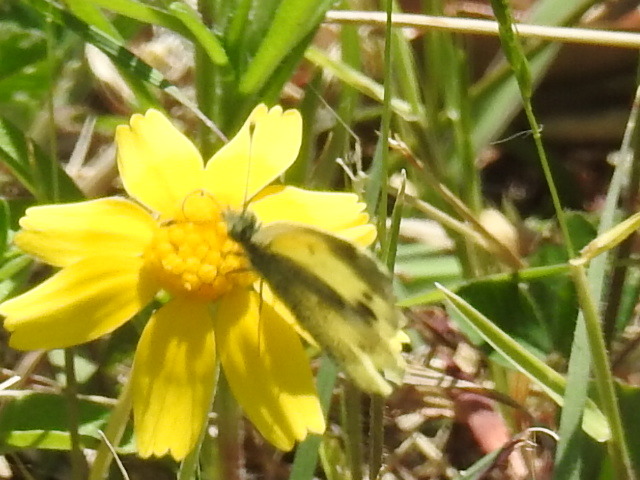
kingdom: Animalia
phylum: Arthropoda
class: Insecta
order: Lepidoptera
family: Pieridae
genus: Nathalis
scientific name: Nathalis iole
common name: Dainty sulphur
